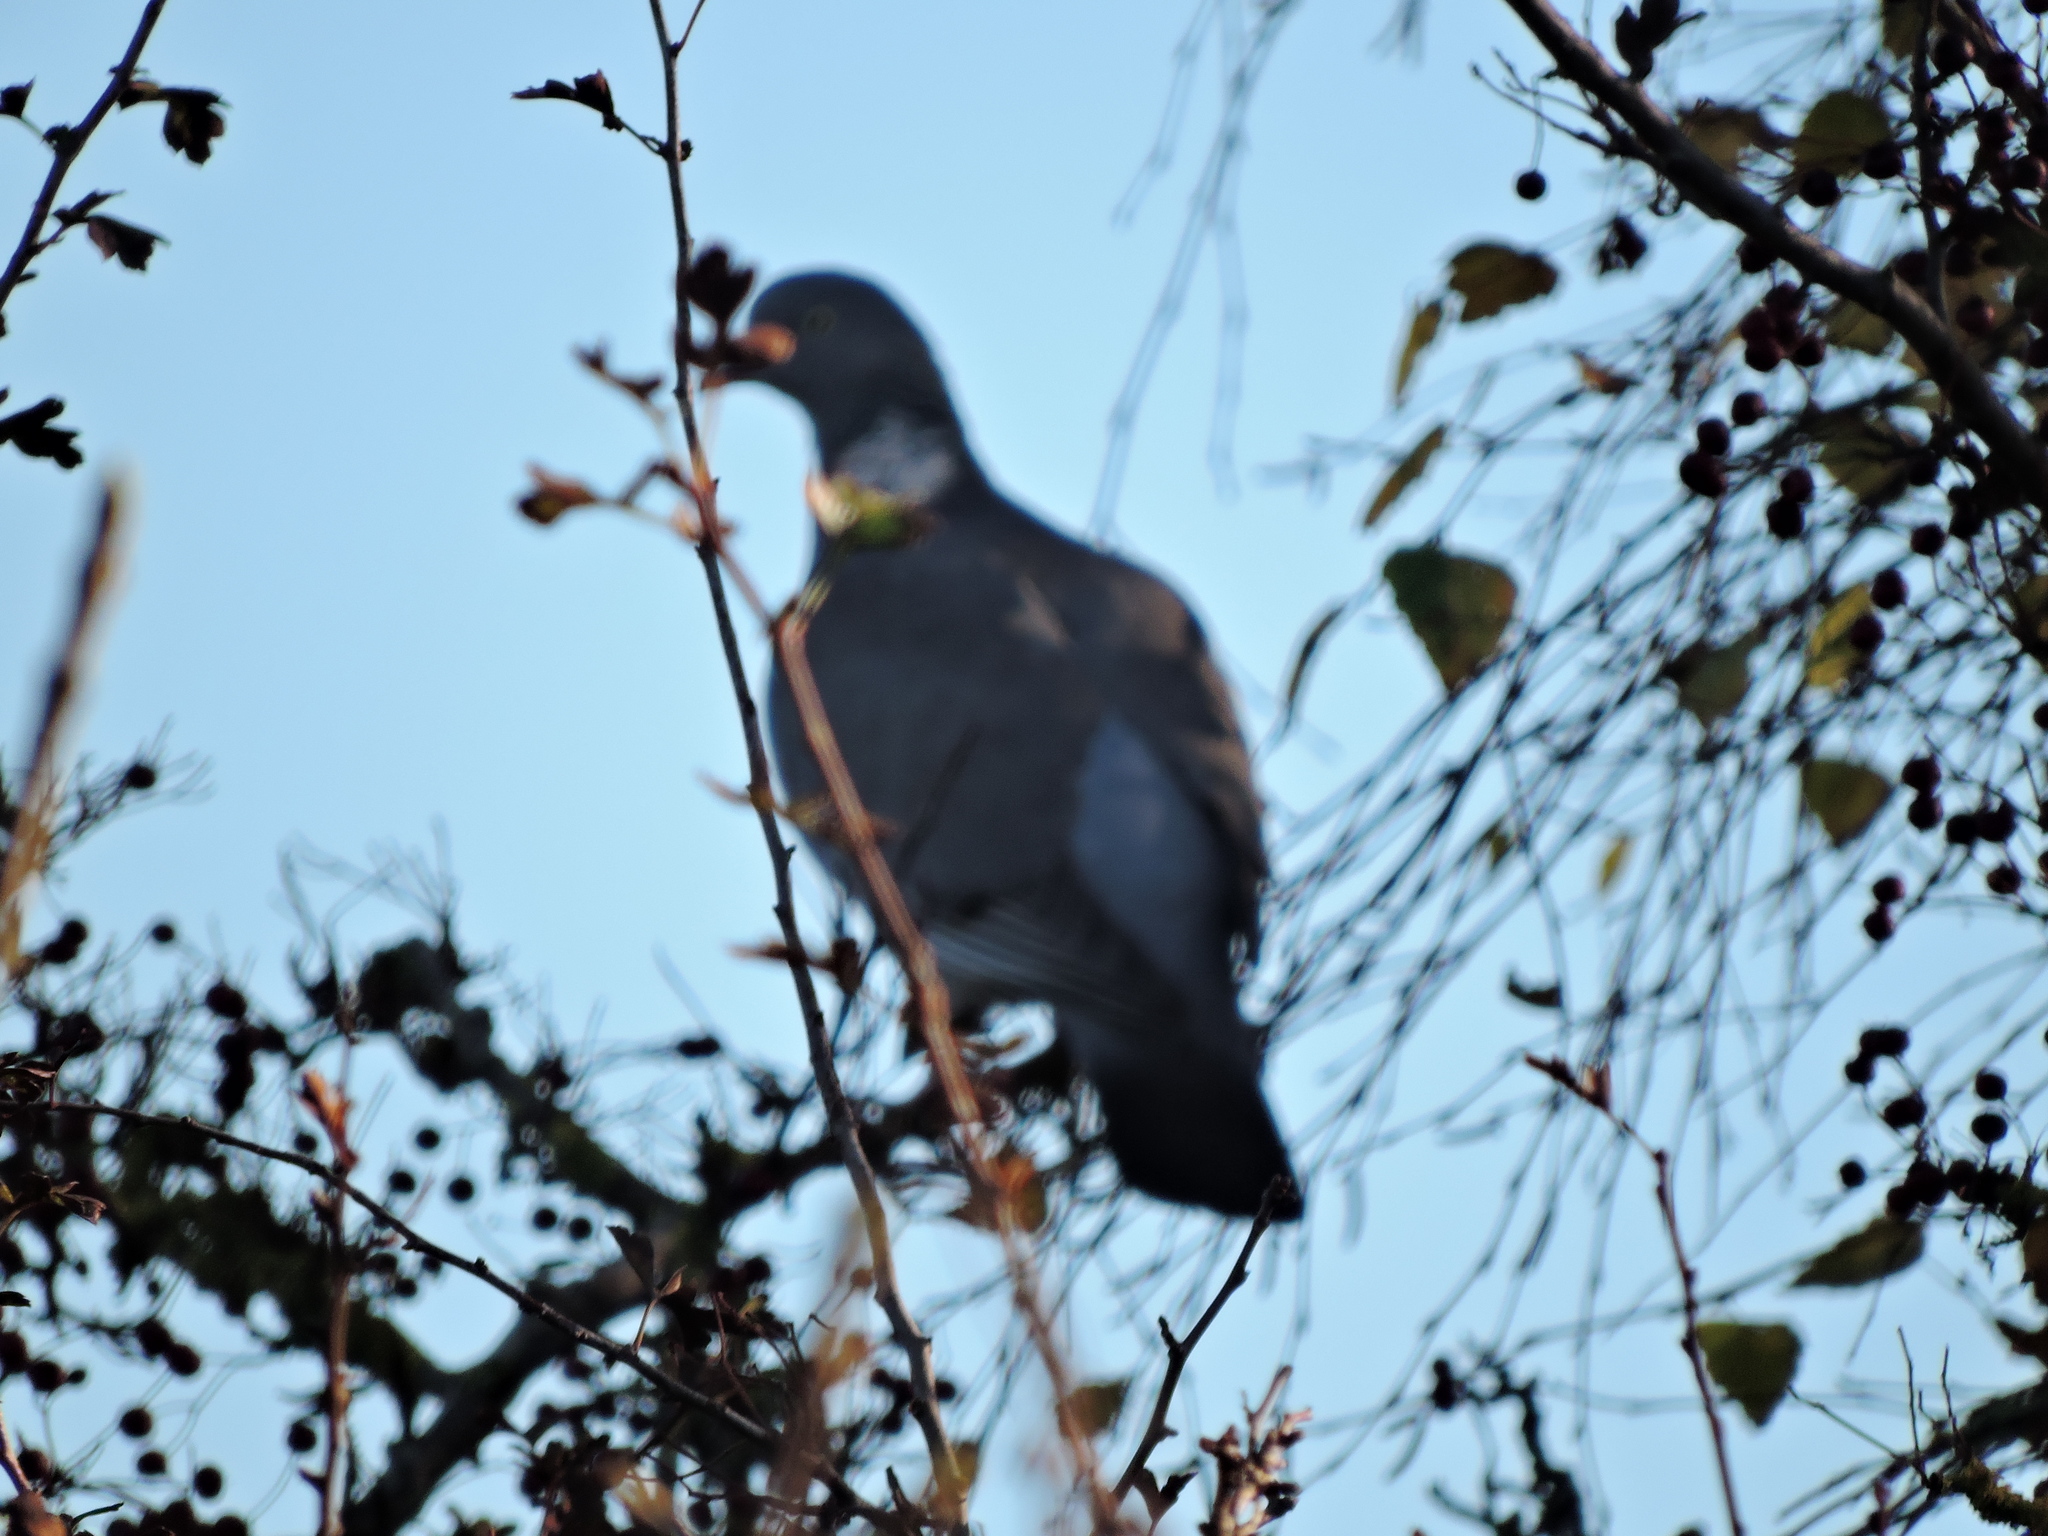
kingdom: Animalia
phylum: Chordata
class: Aves
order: Columbiformes
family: Columbidae
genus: Columba
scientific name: Columba palumbus
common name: Common wood pigeon
